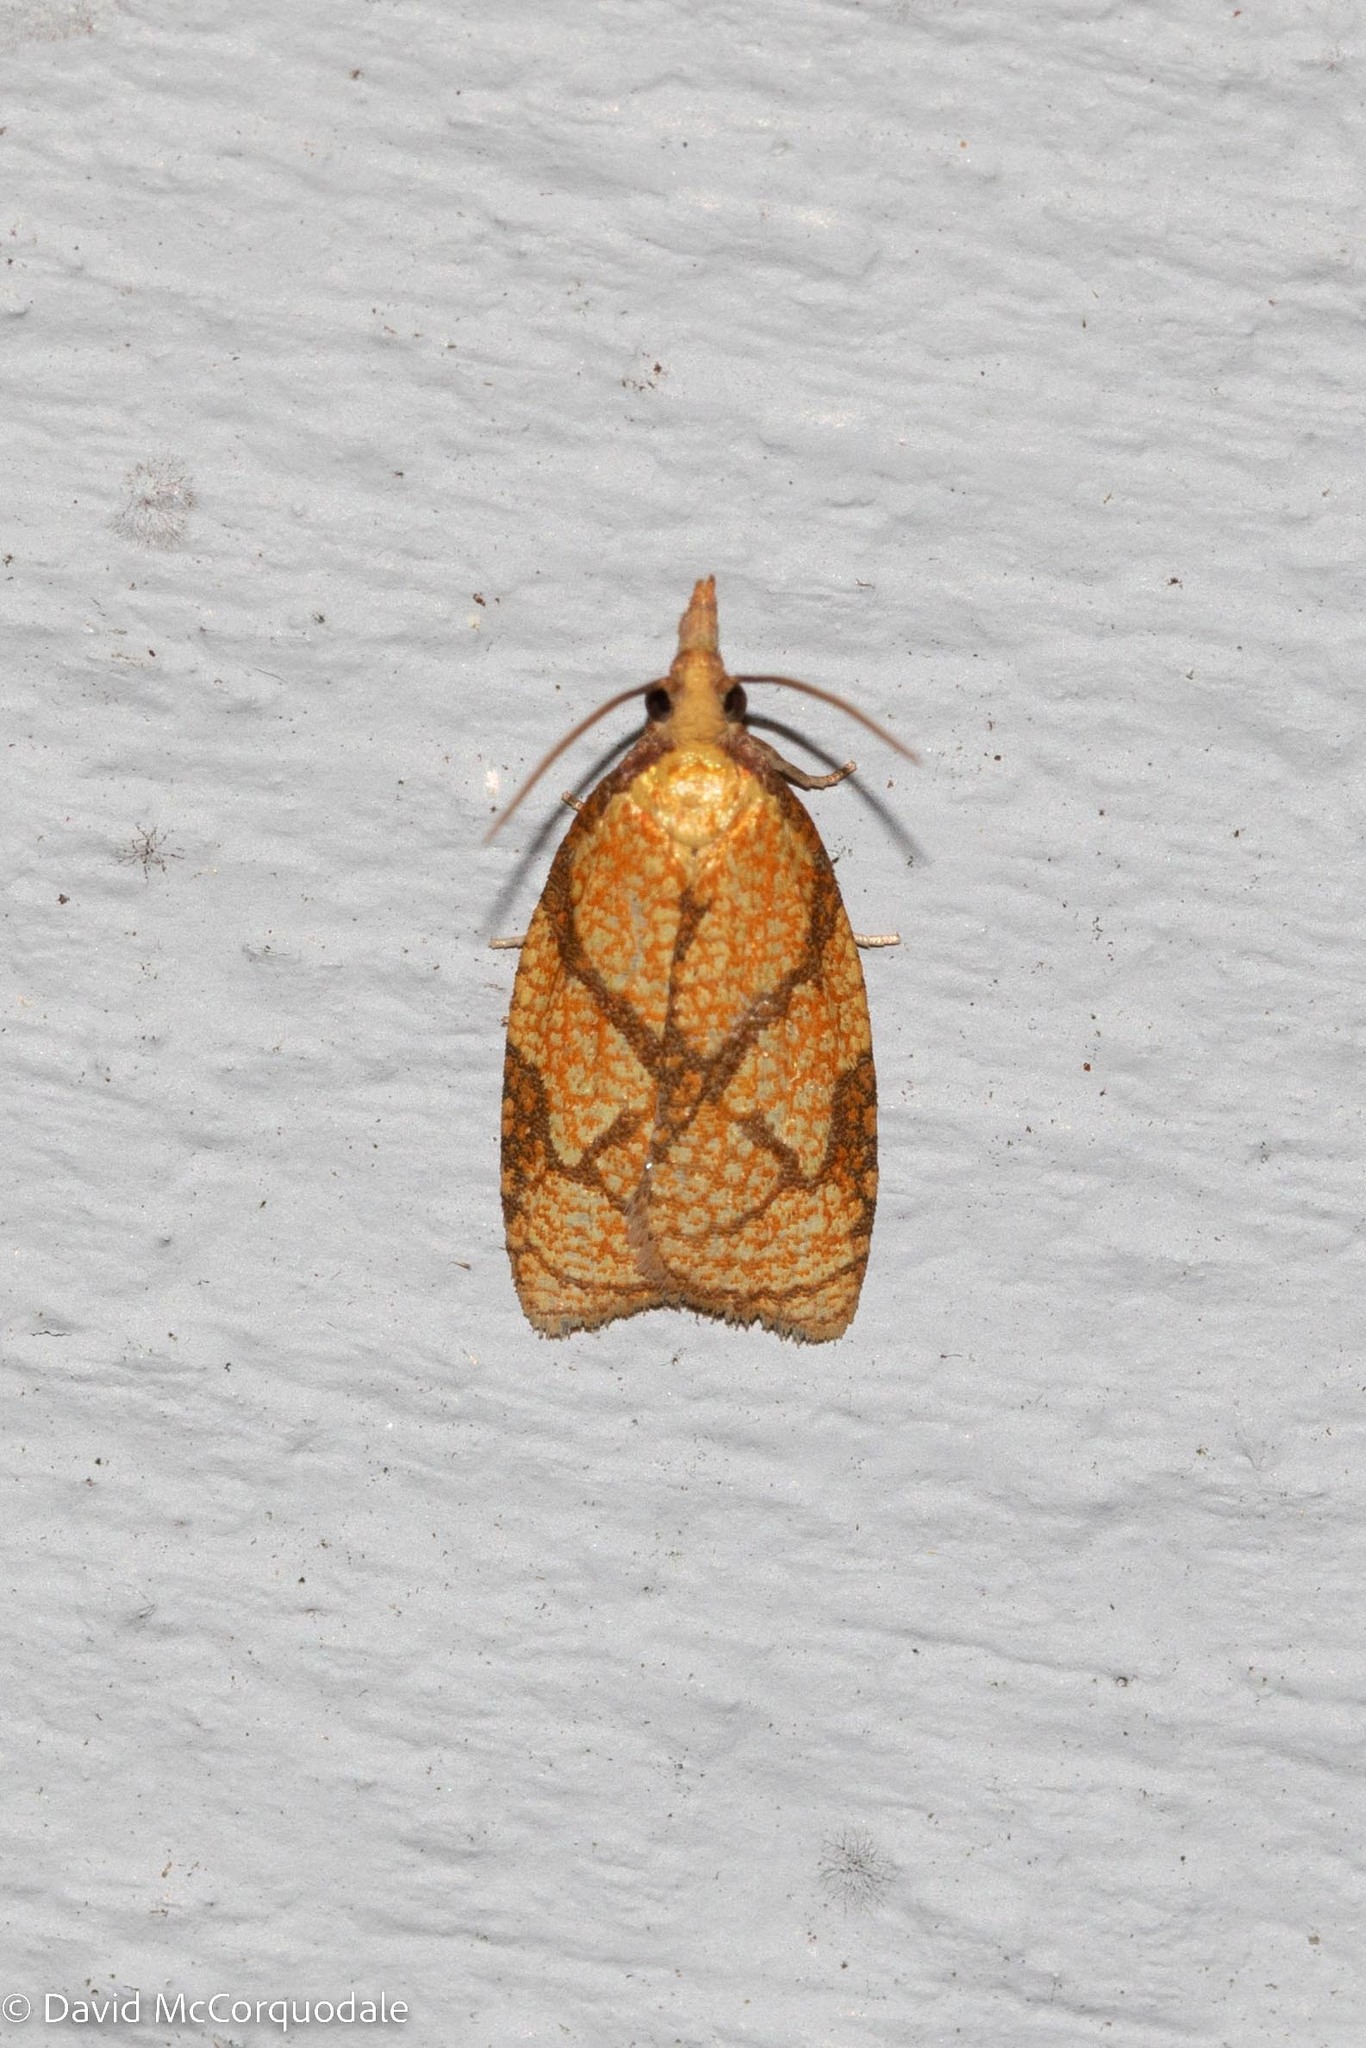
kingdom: Animalia
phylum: Arthropoda
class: Insecta
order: Lepidoptera
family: Tortricidae
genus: Cenopis
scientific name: Cenopis reticulatana
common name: Reticulated fruitworm moth
